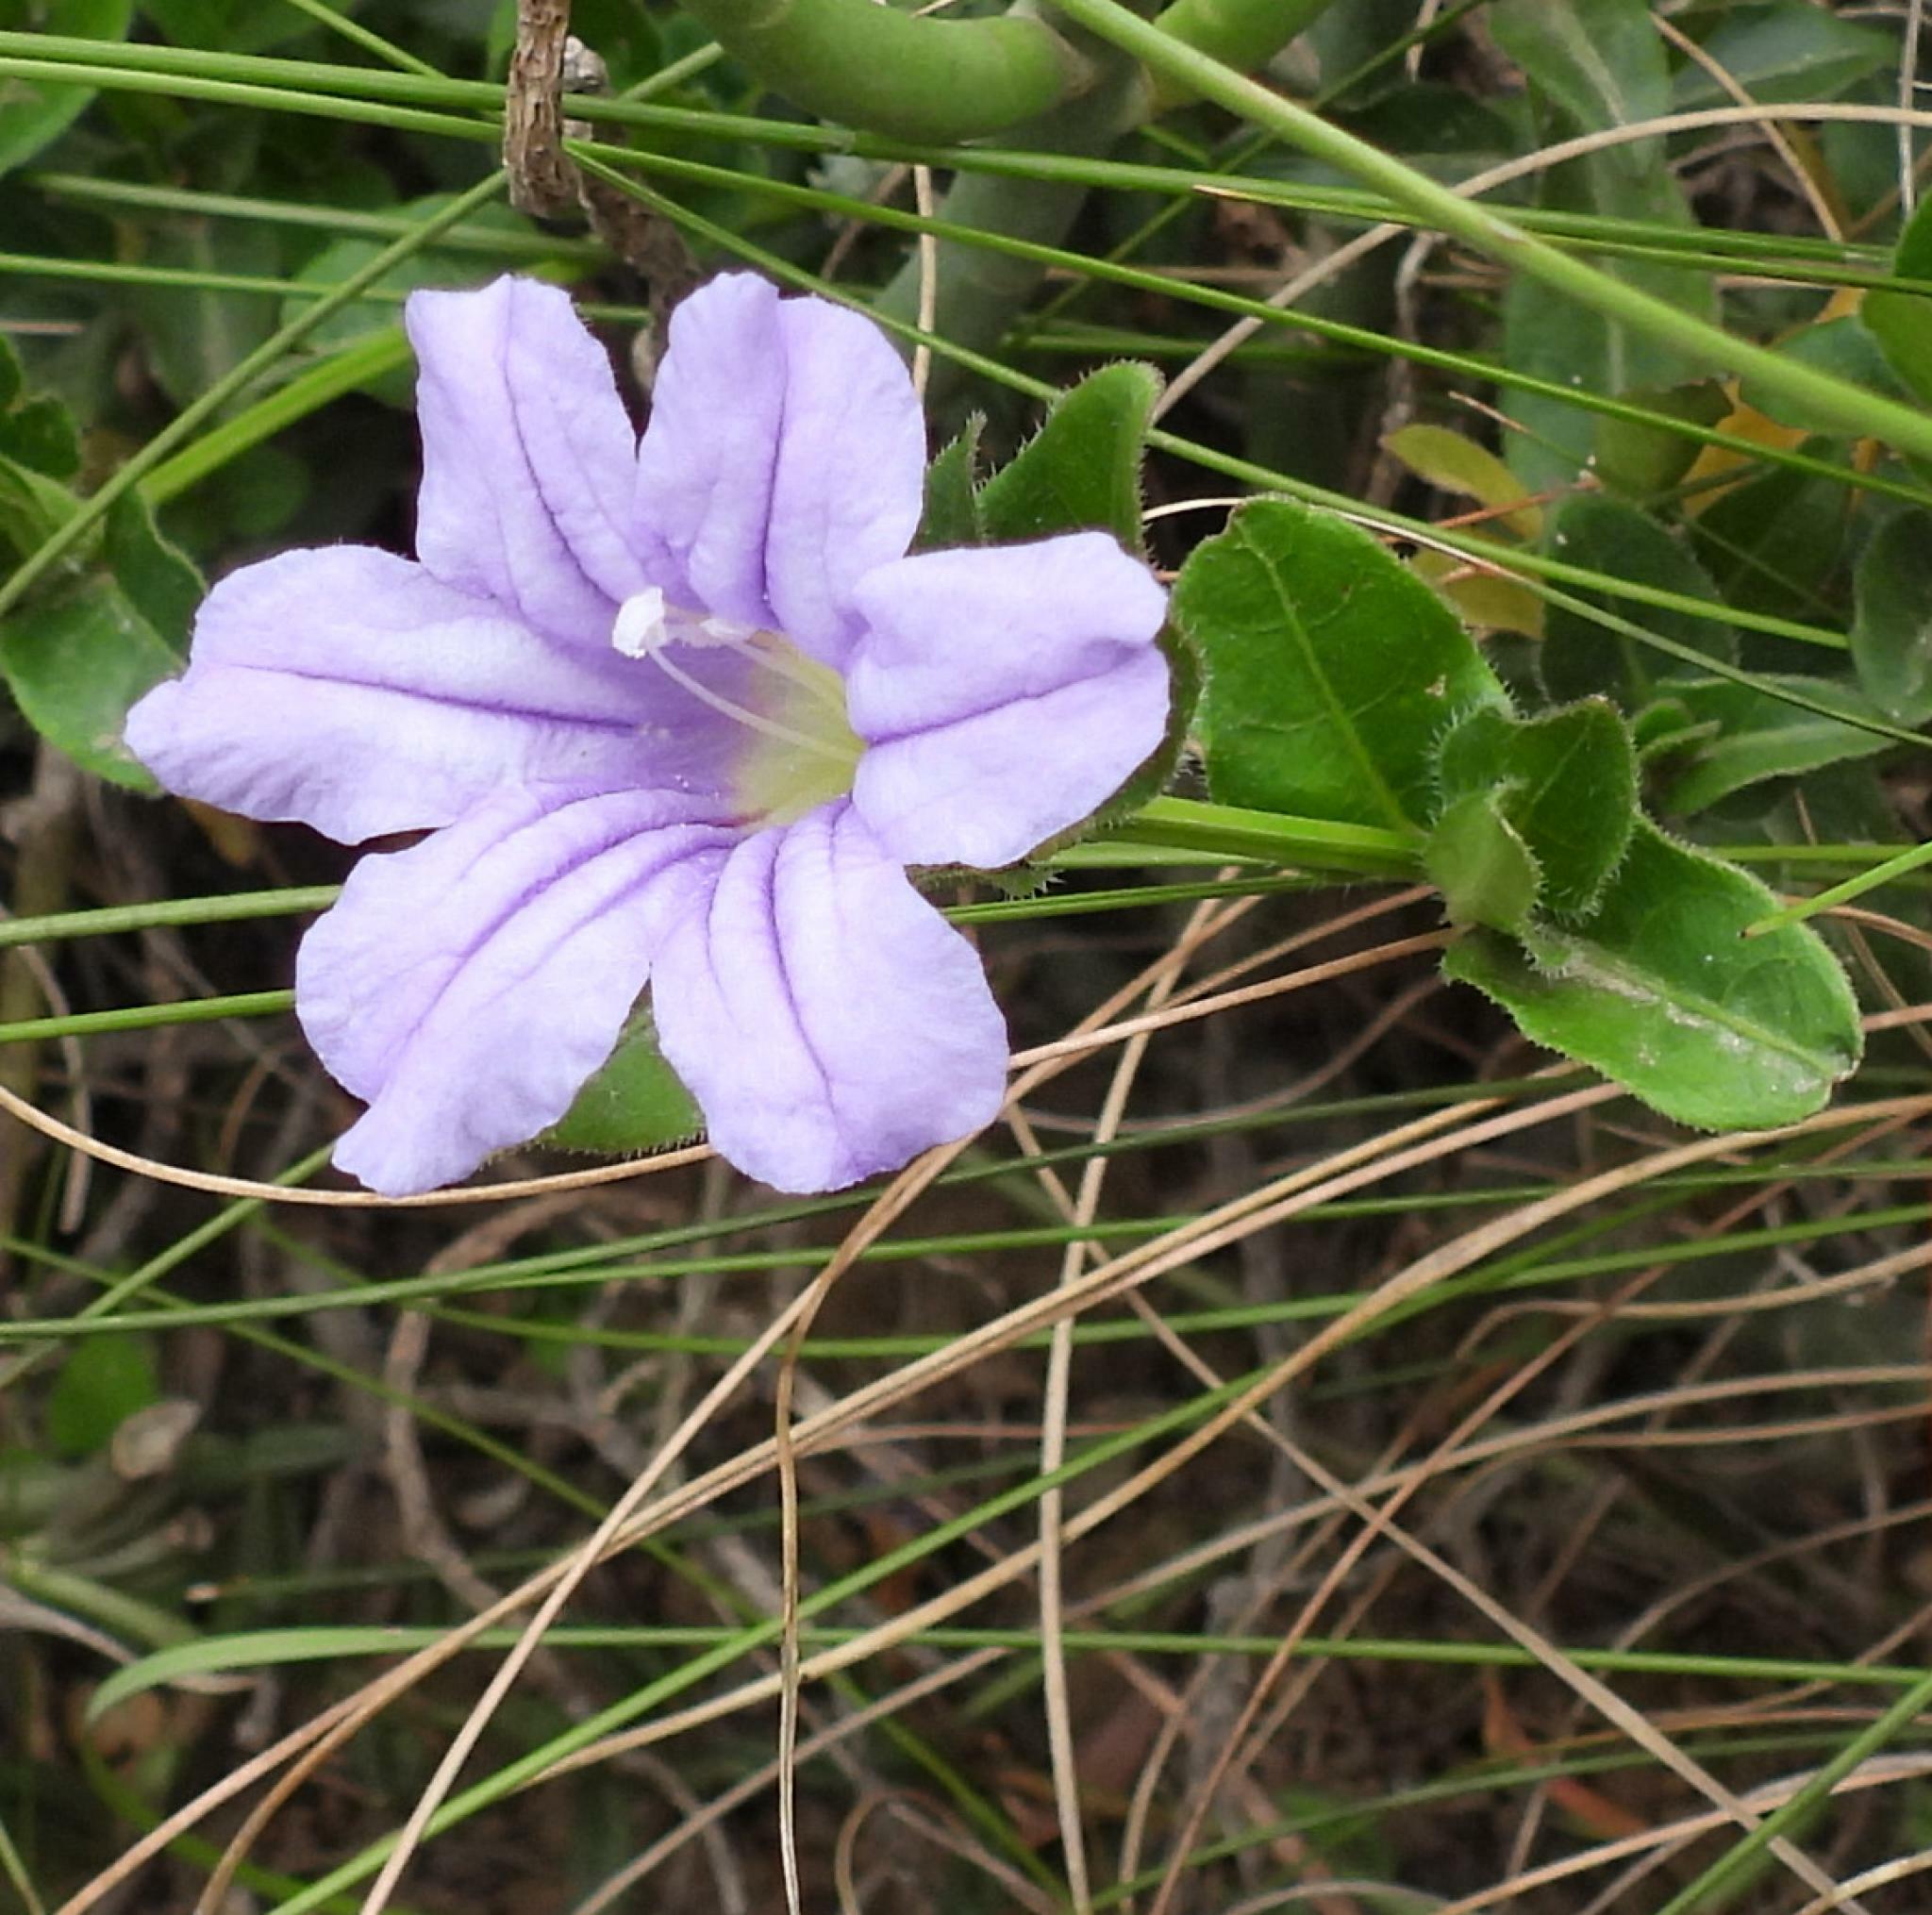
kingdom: Plantae
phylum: Tracheophyta
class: Magnoliopsida
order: Lamiales
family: Acanthaceae
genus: Ruellia
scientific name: Ruellia cordata
